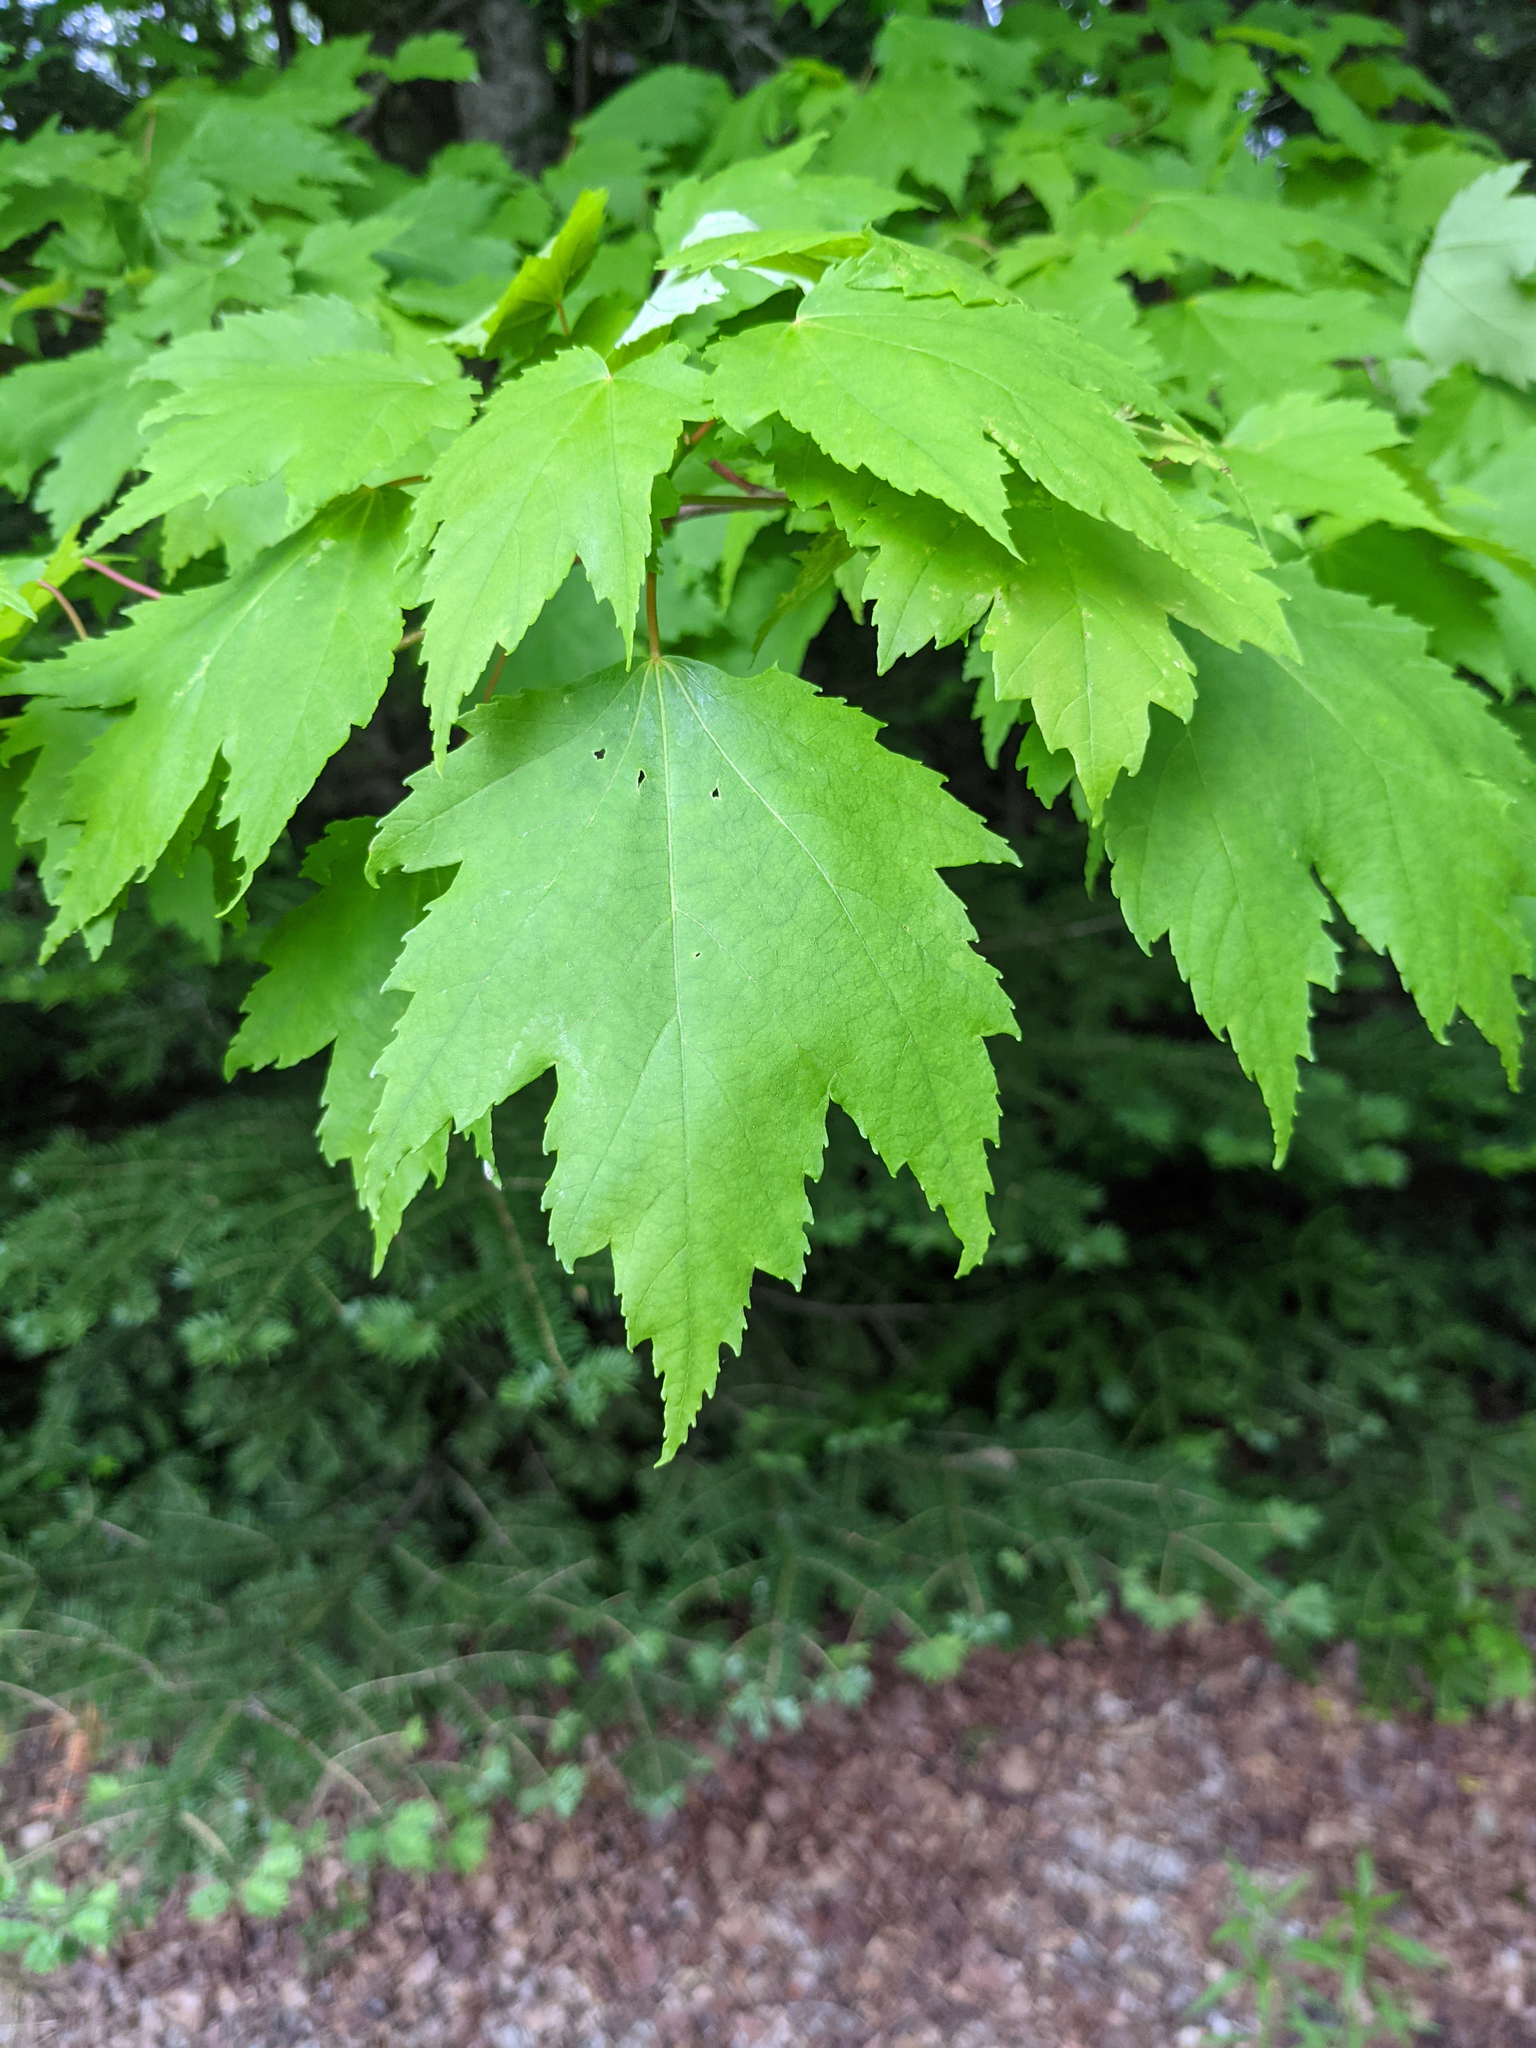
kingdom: Plantae
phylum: Tracheophyta
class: Magnoliopsida
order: Sapindales
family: Sapindaceae
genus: Acer
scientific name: Acer rubrum
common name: Red maple
